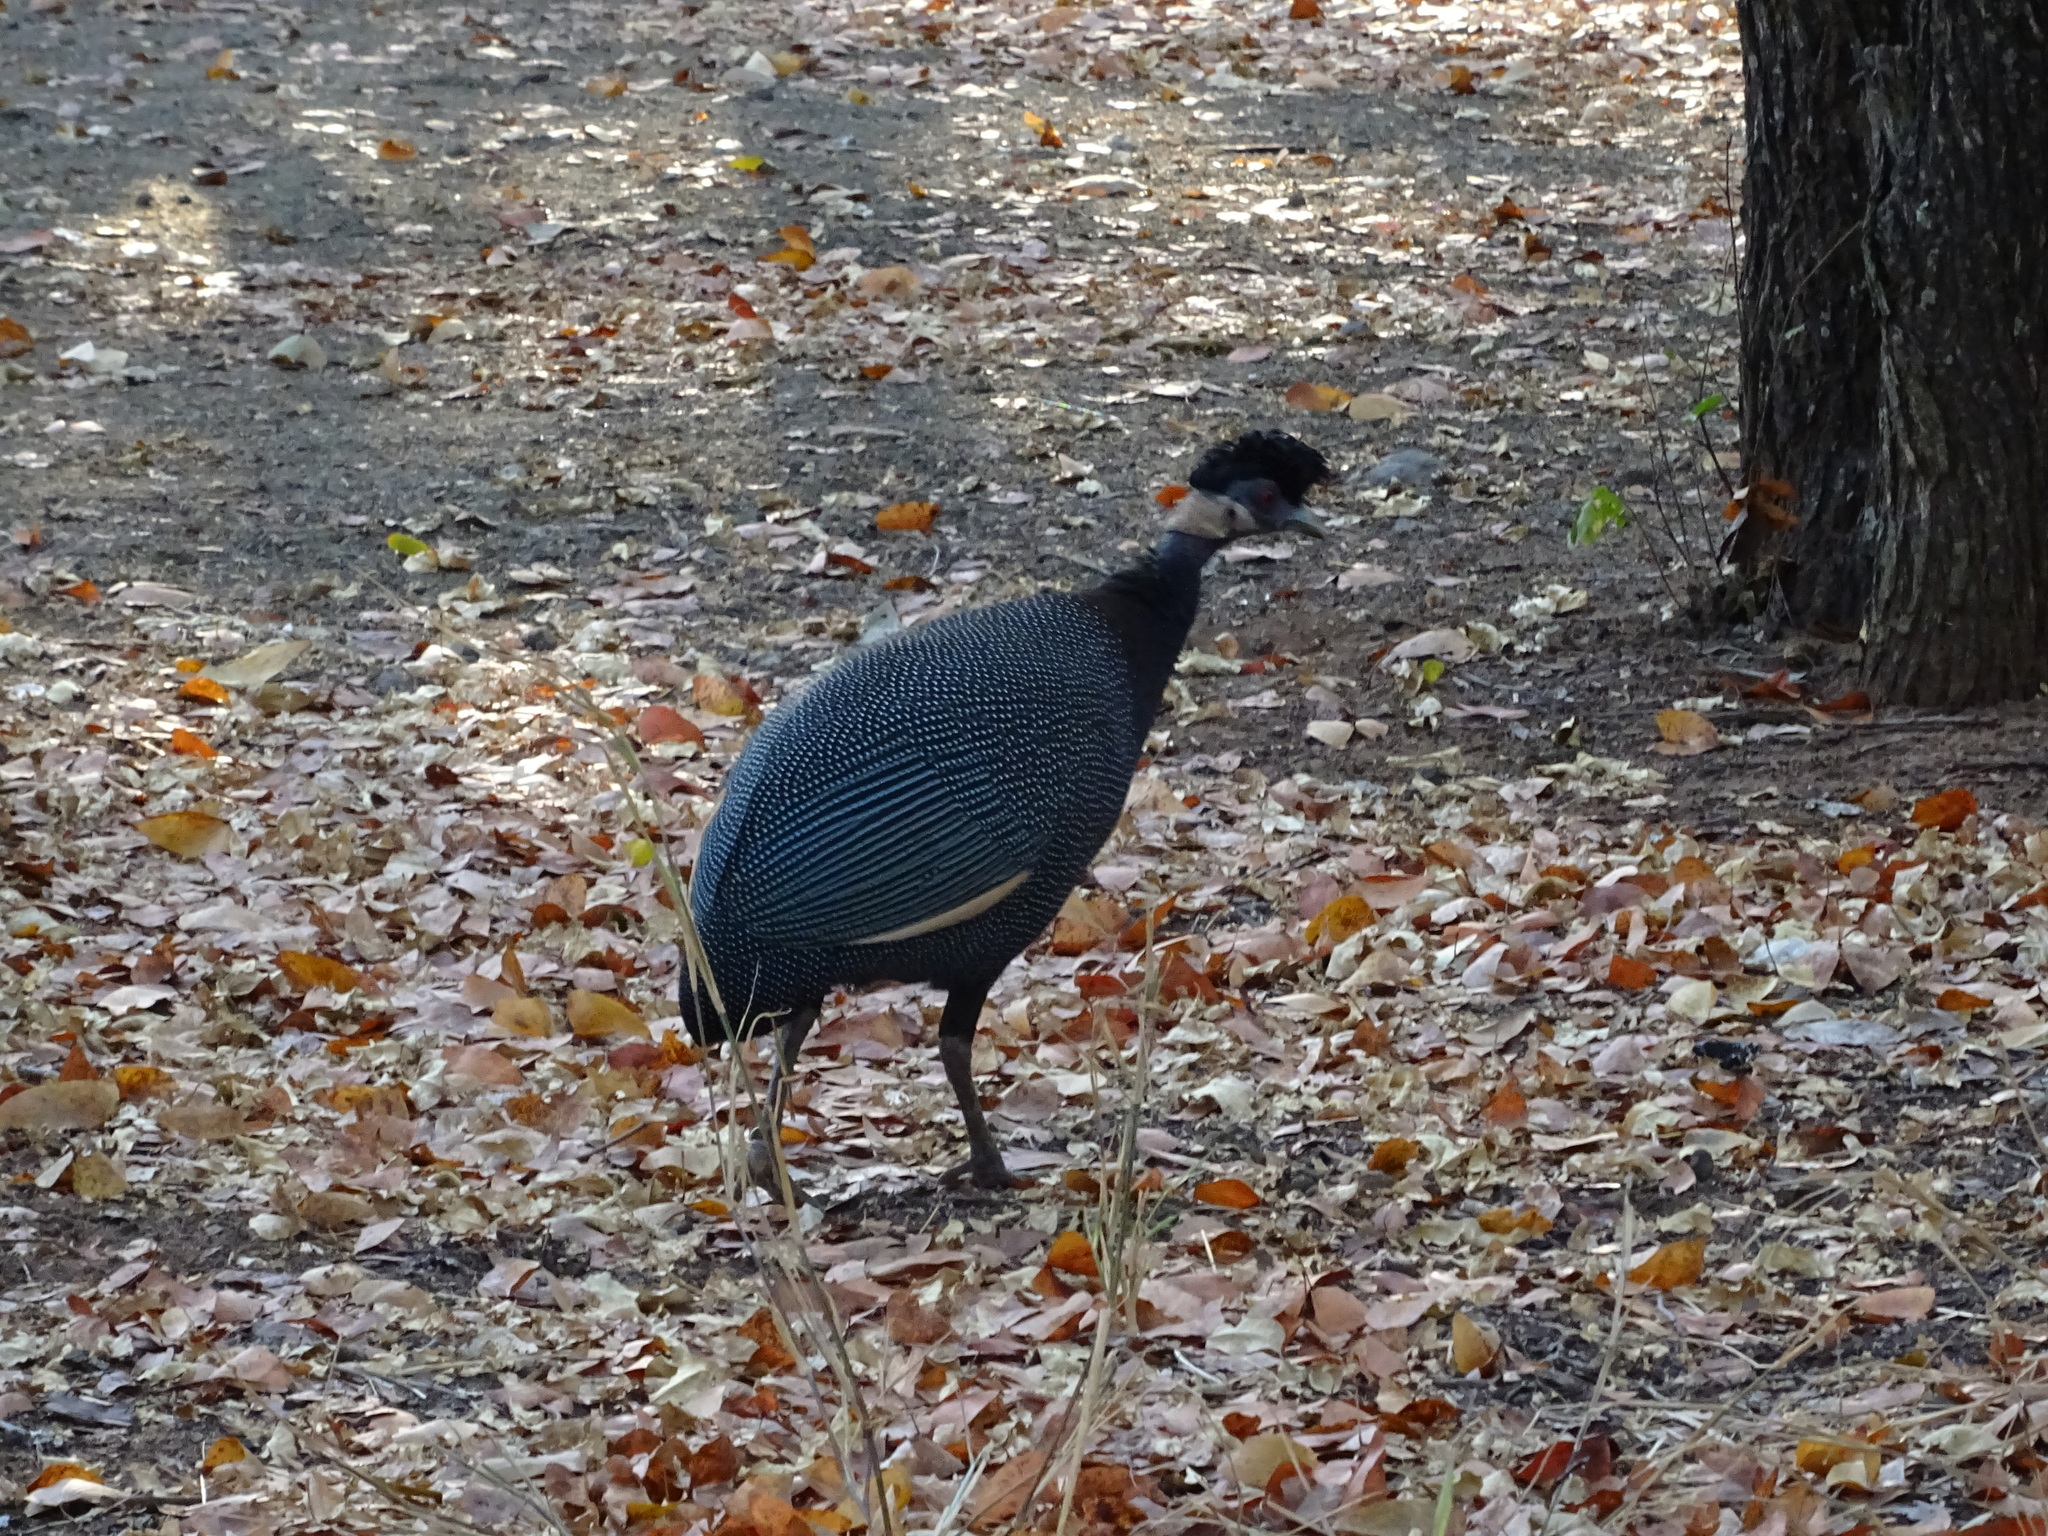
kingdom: Animalia
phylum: Chordata
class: Aves
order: Galliformes
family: Numididae
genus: Guttera
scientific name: Guttera pucherani
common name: Crested guineafowl
